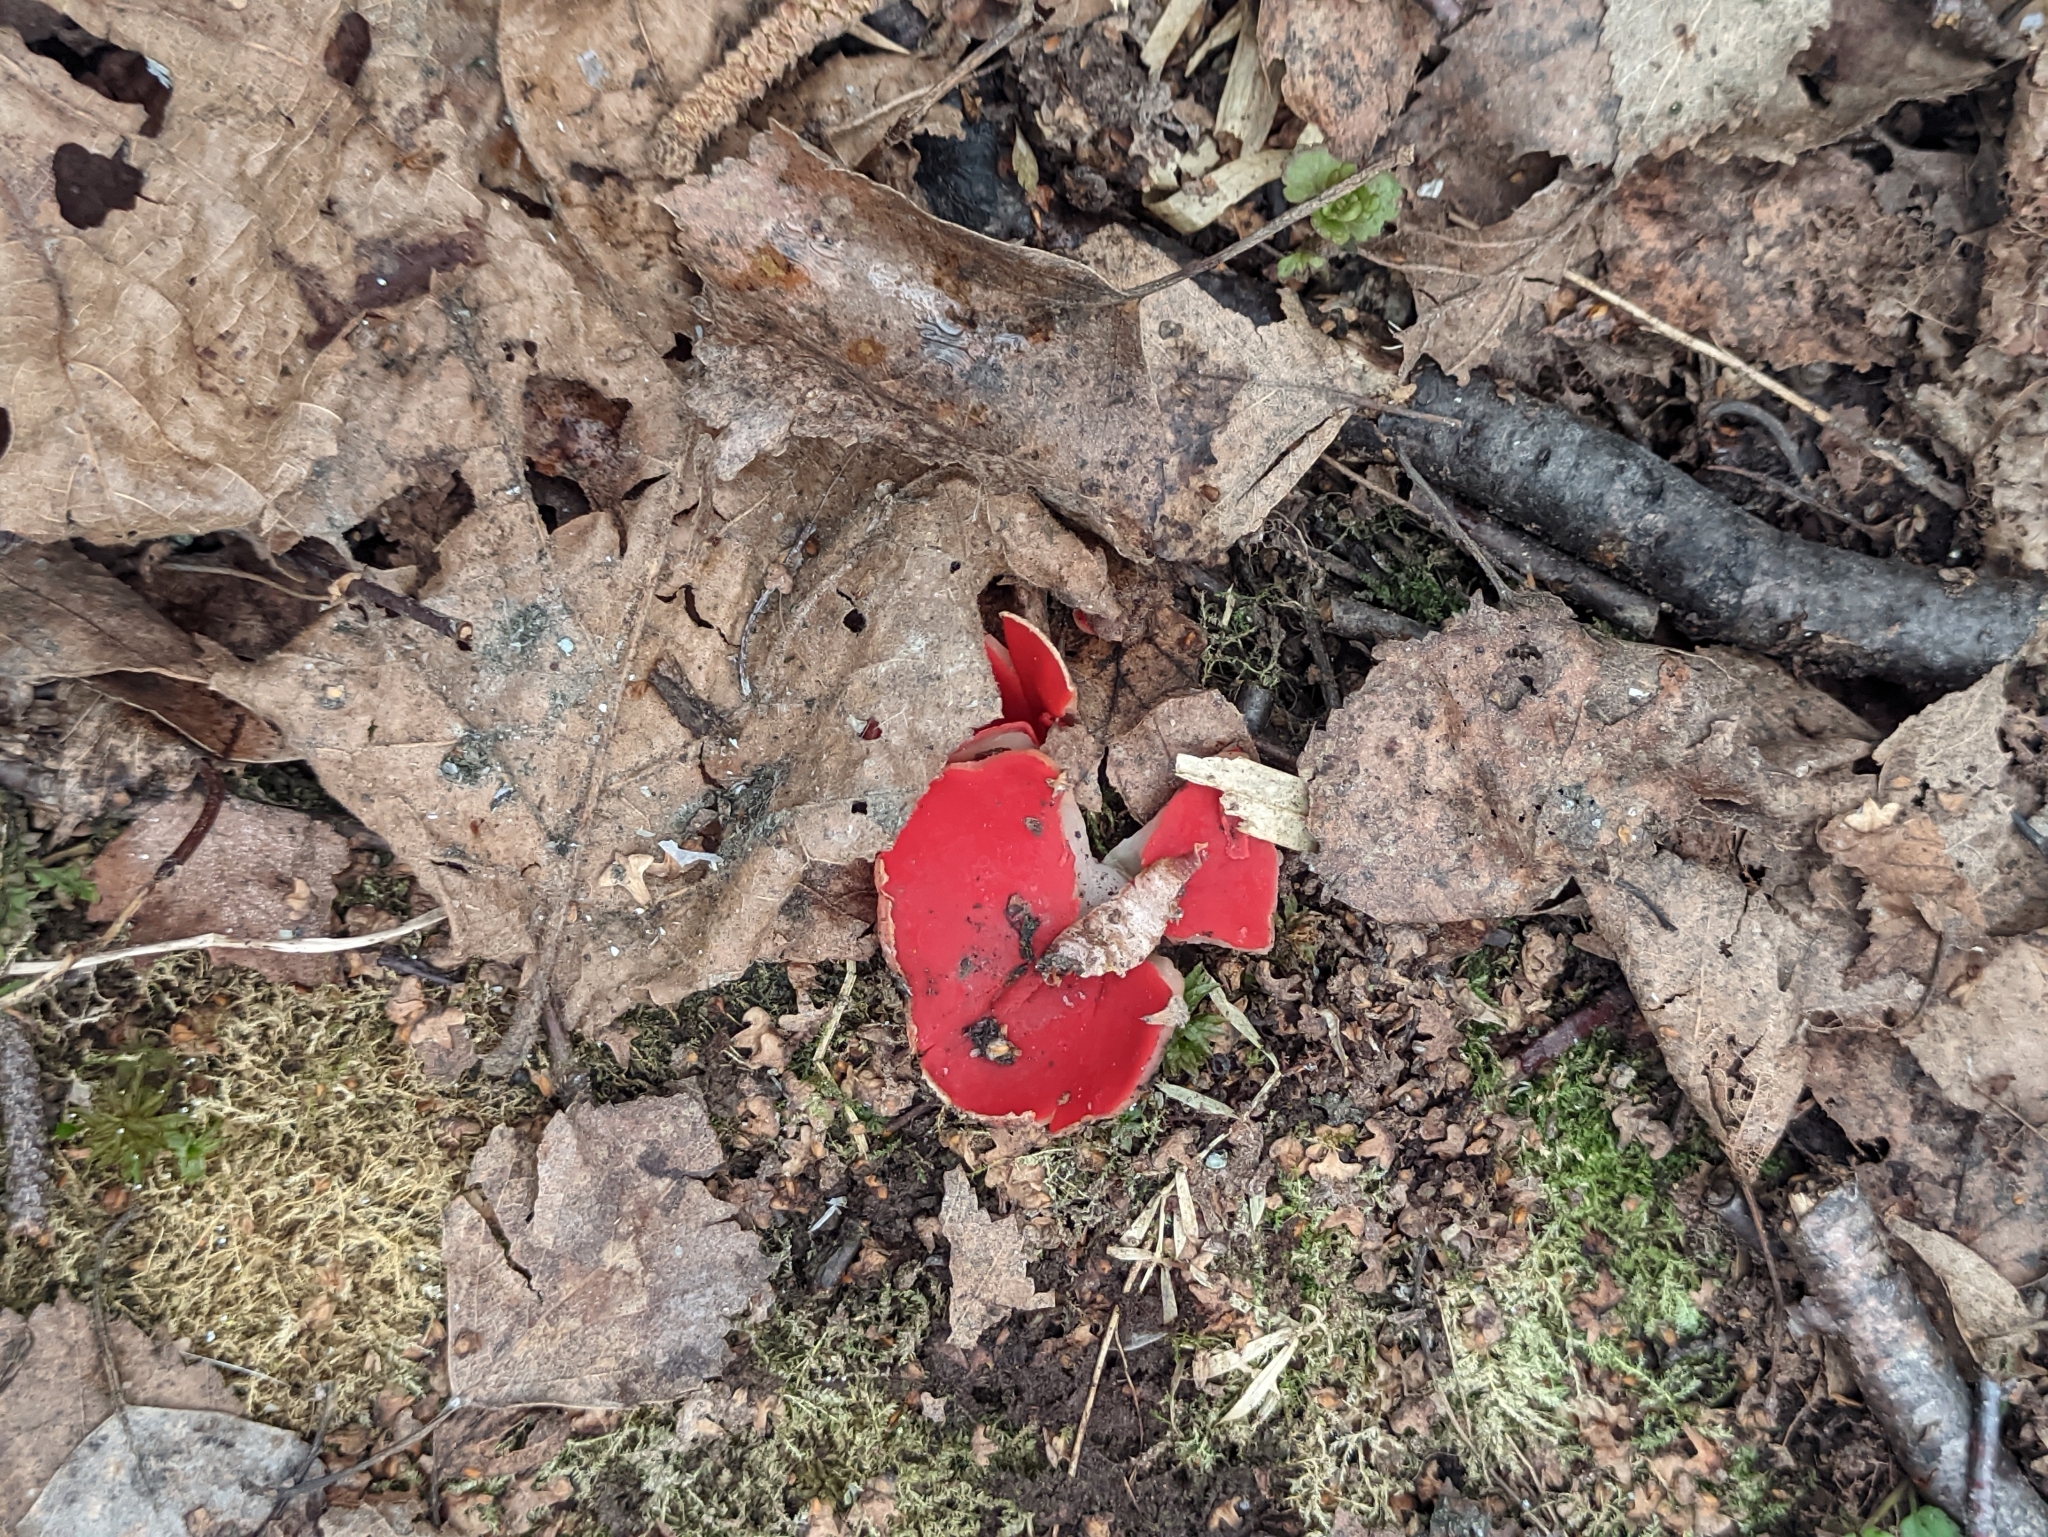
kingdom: Fungi
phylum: Ascomycota
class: Pezizomycetes
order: Pezizales
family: Sarcoscyphaceae
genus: Sarcoscypha
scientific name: Sarcoscypha austriaca
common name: Scarlet elfcup
